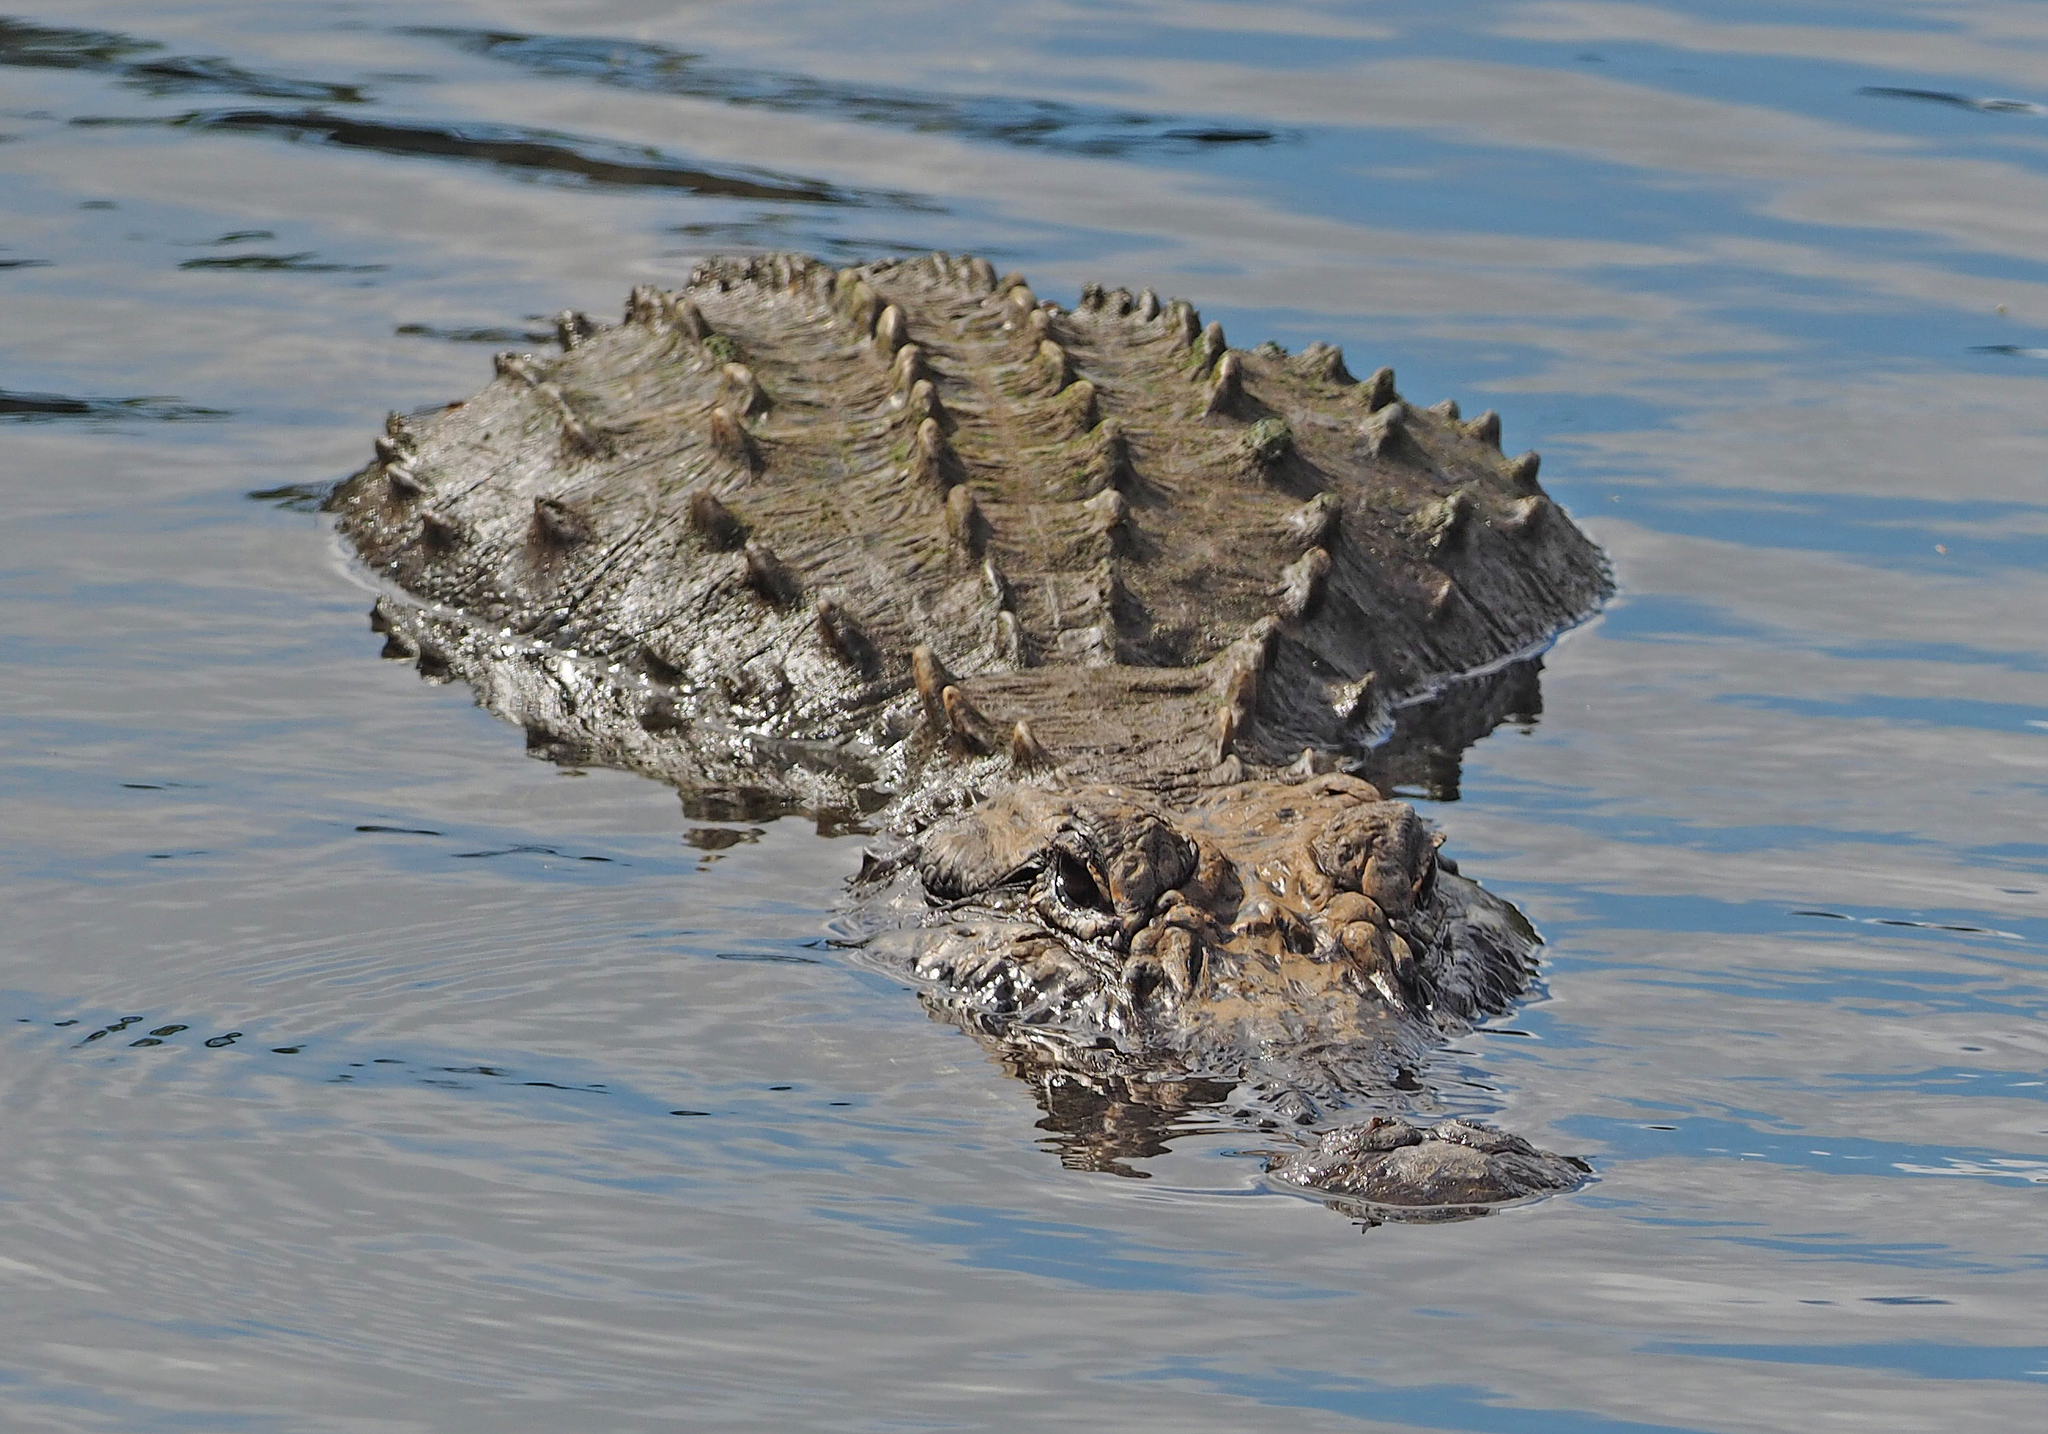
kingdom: Animalia
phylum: Chordata
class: Crocodylia
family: Alligatoridae
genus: Alligator
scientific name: Alligator mississippiensis
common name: American alligator
